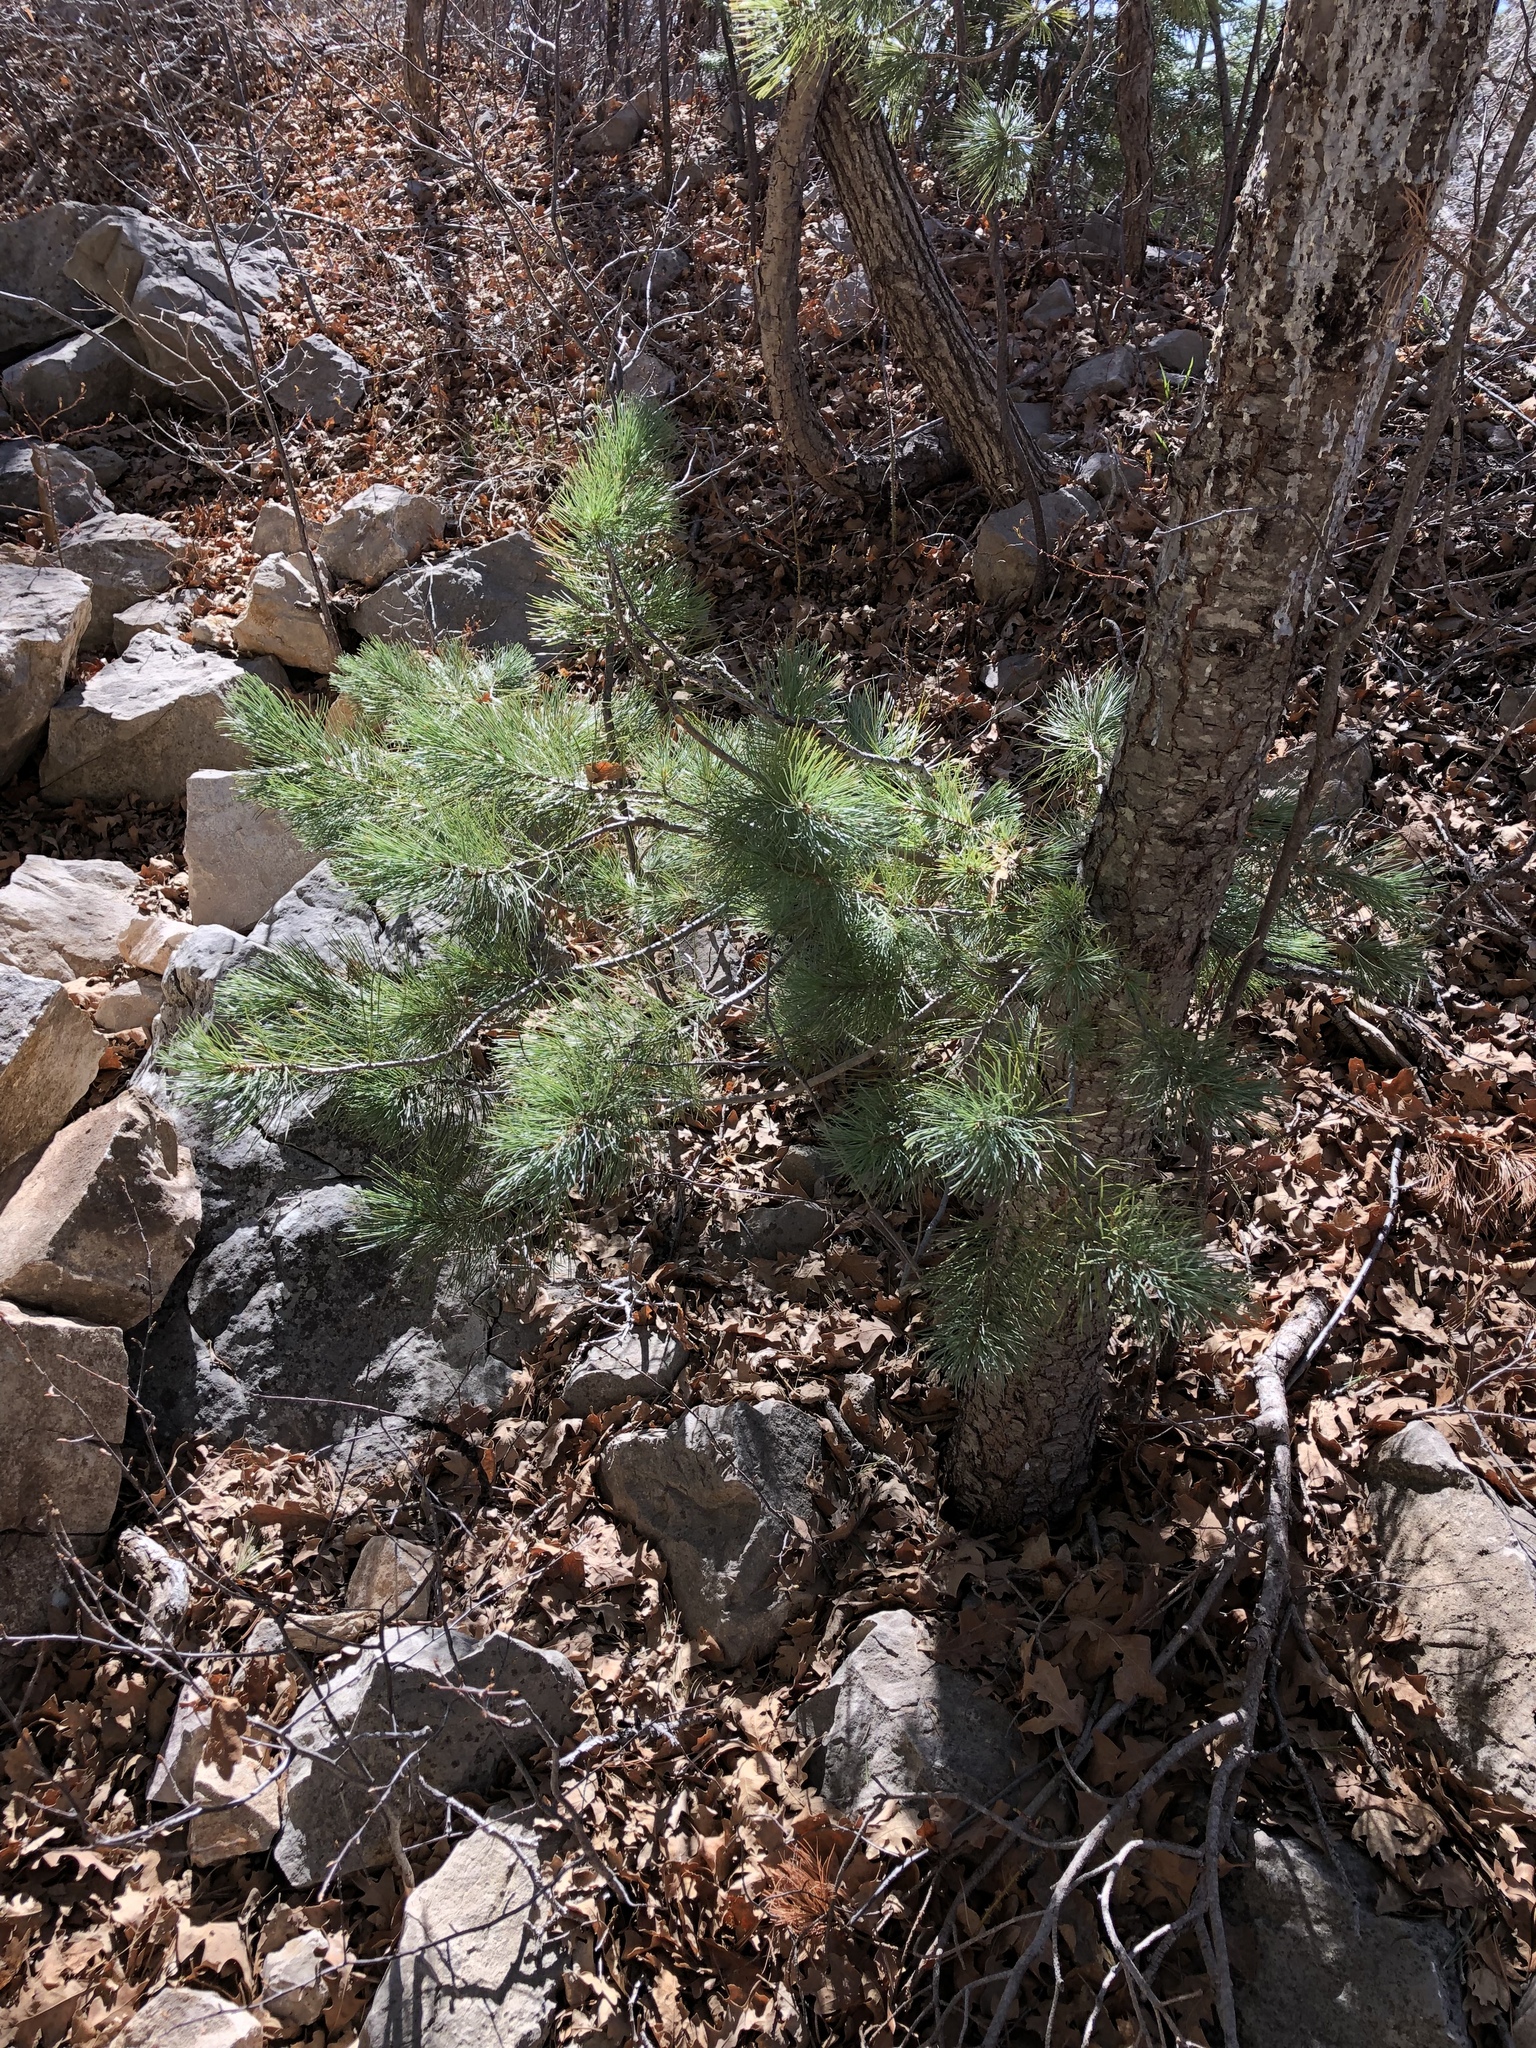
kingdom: Plantae
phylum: Tracheophyta
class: Pinopsida
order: Pinales
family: Pinaceae
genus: Pinus
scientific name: Pinus strobiformis
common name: Southwestern white pine
